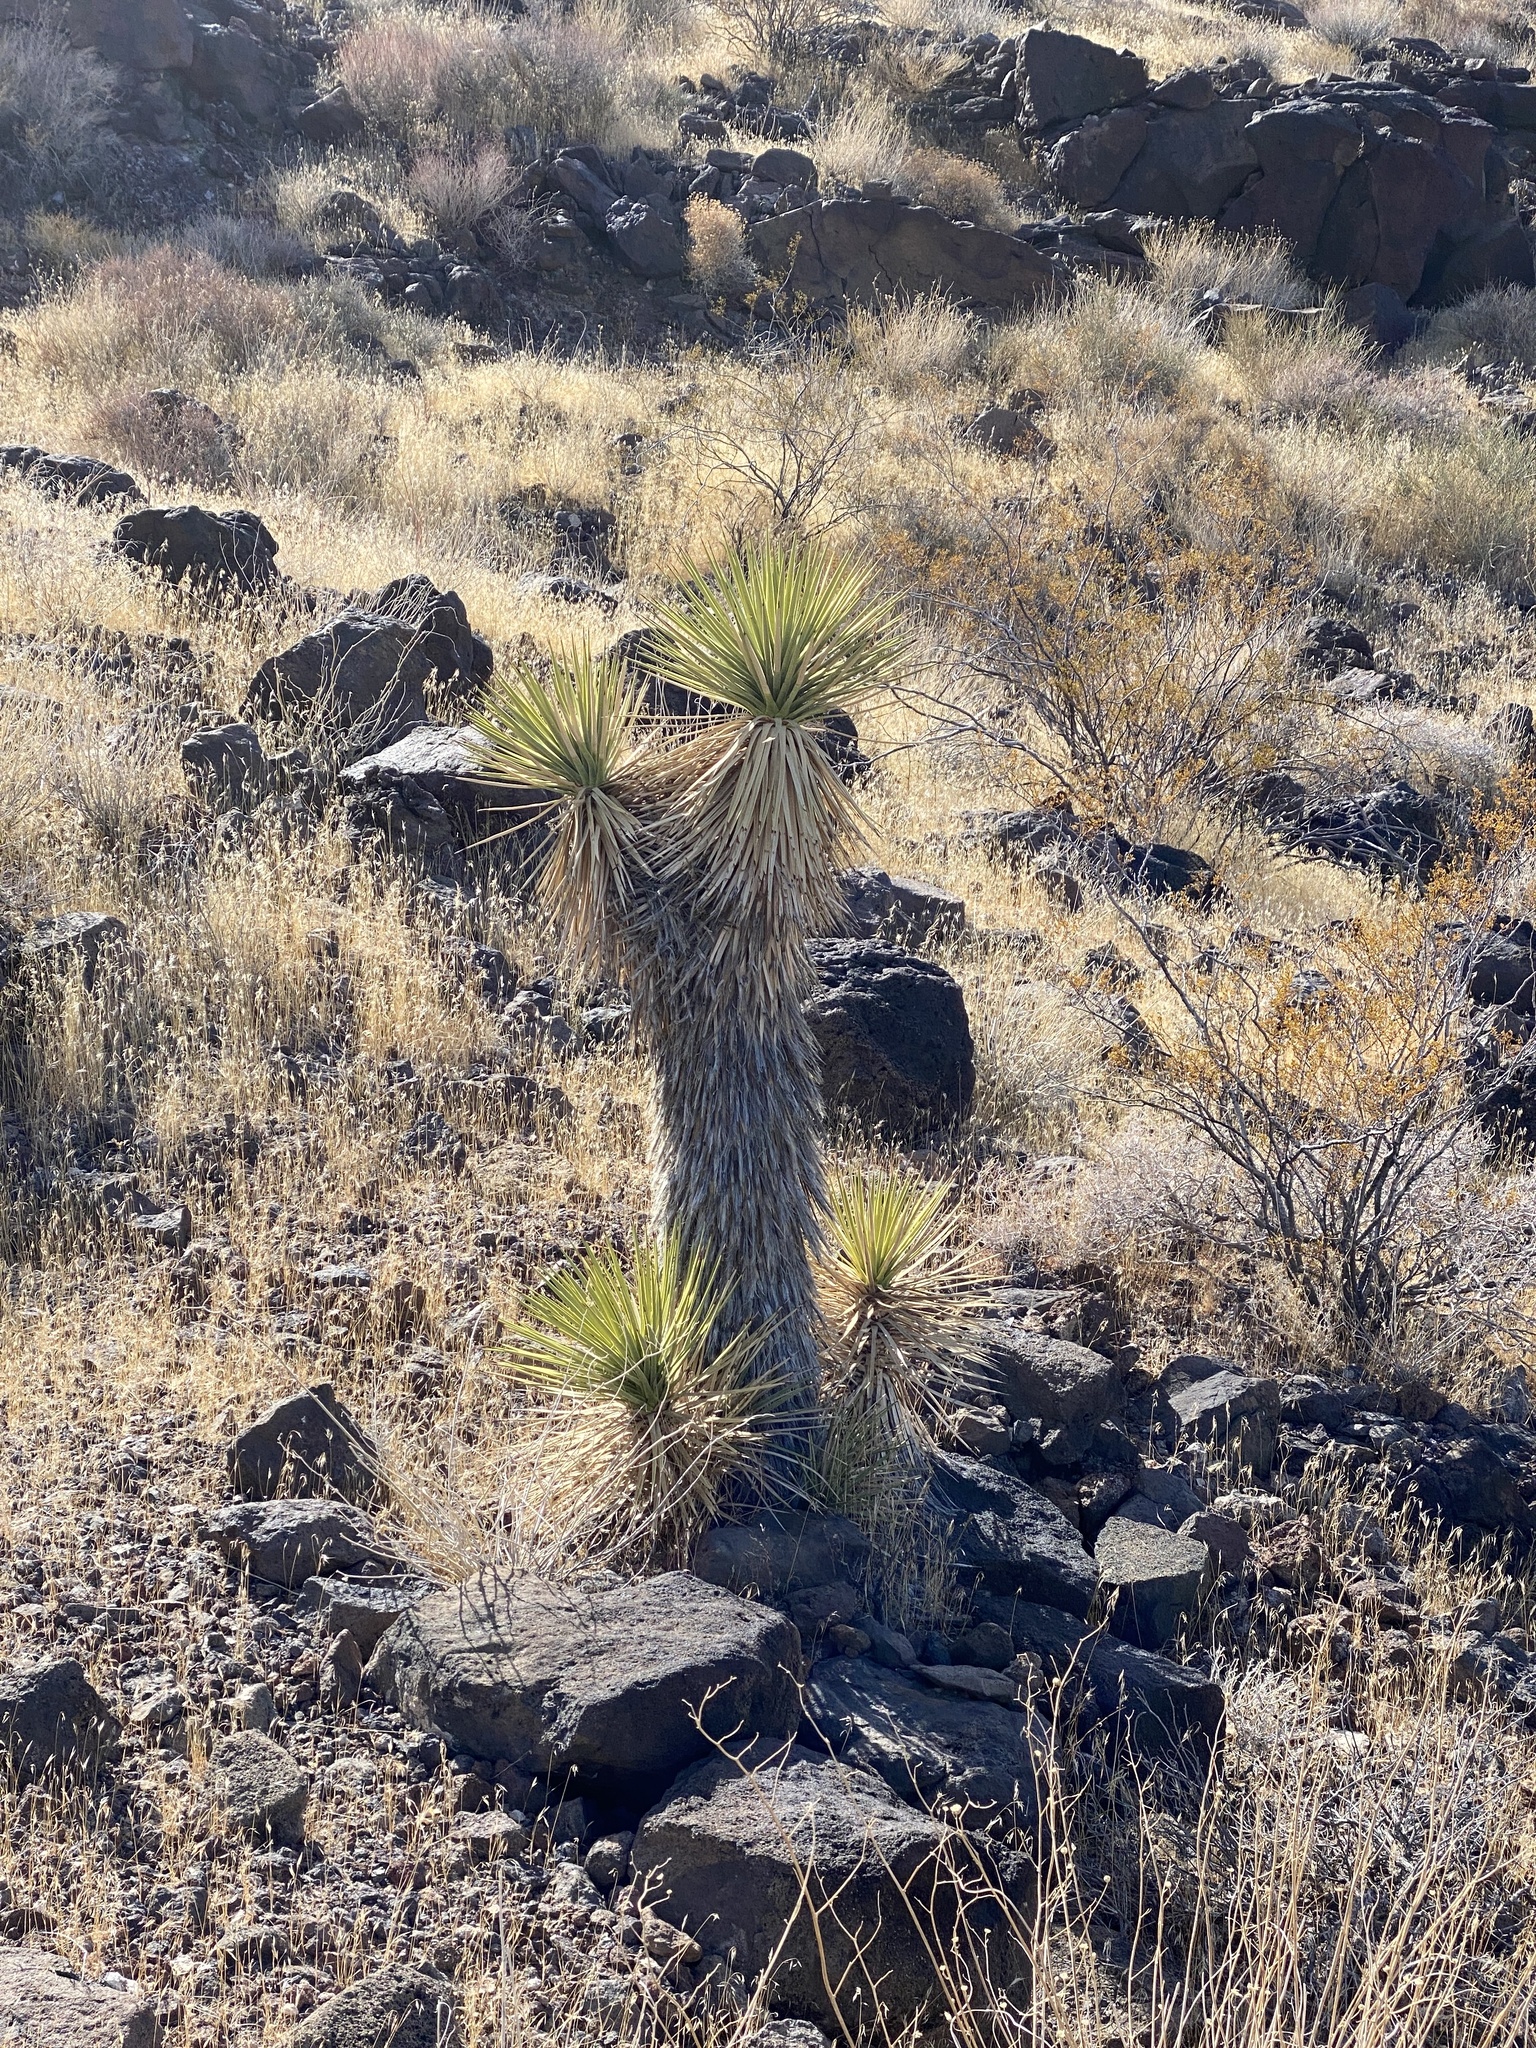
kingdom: Plantae
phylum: Tracheophyta
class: Liliopsida
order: Asparagales
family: Asparagaceae
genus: Yucca
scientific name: Yucca brevifolia
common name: Joshua tree
